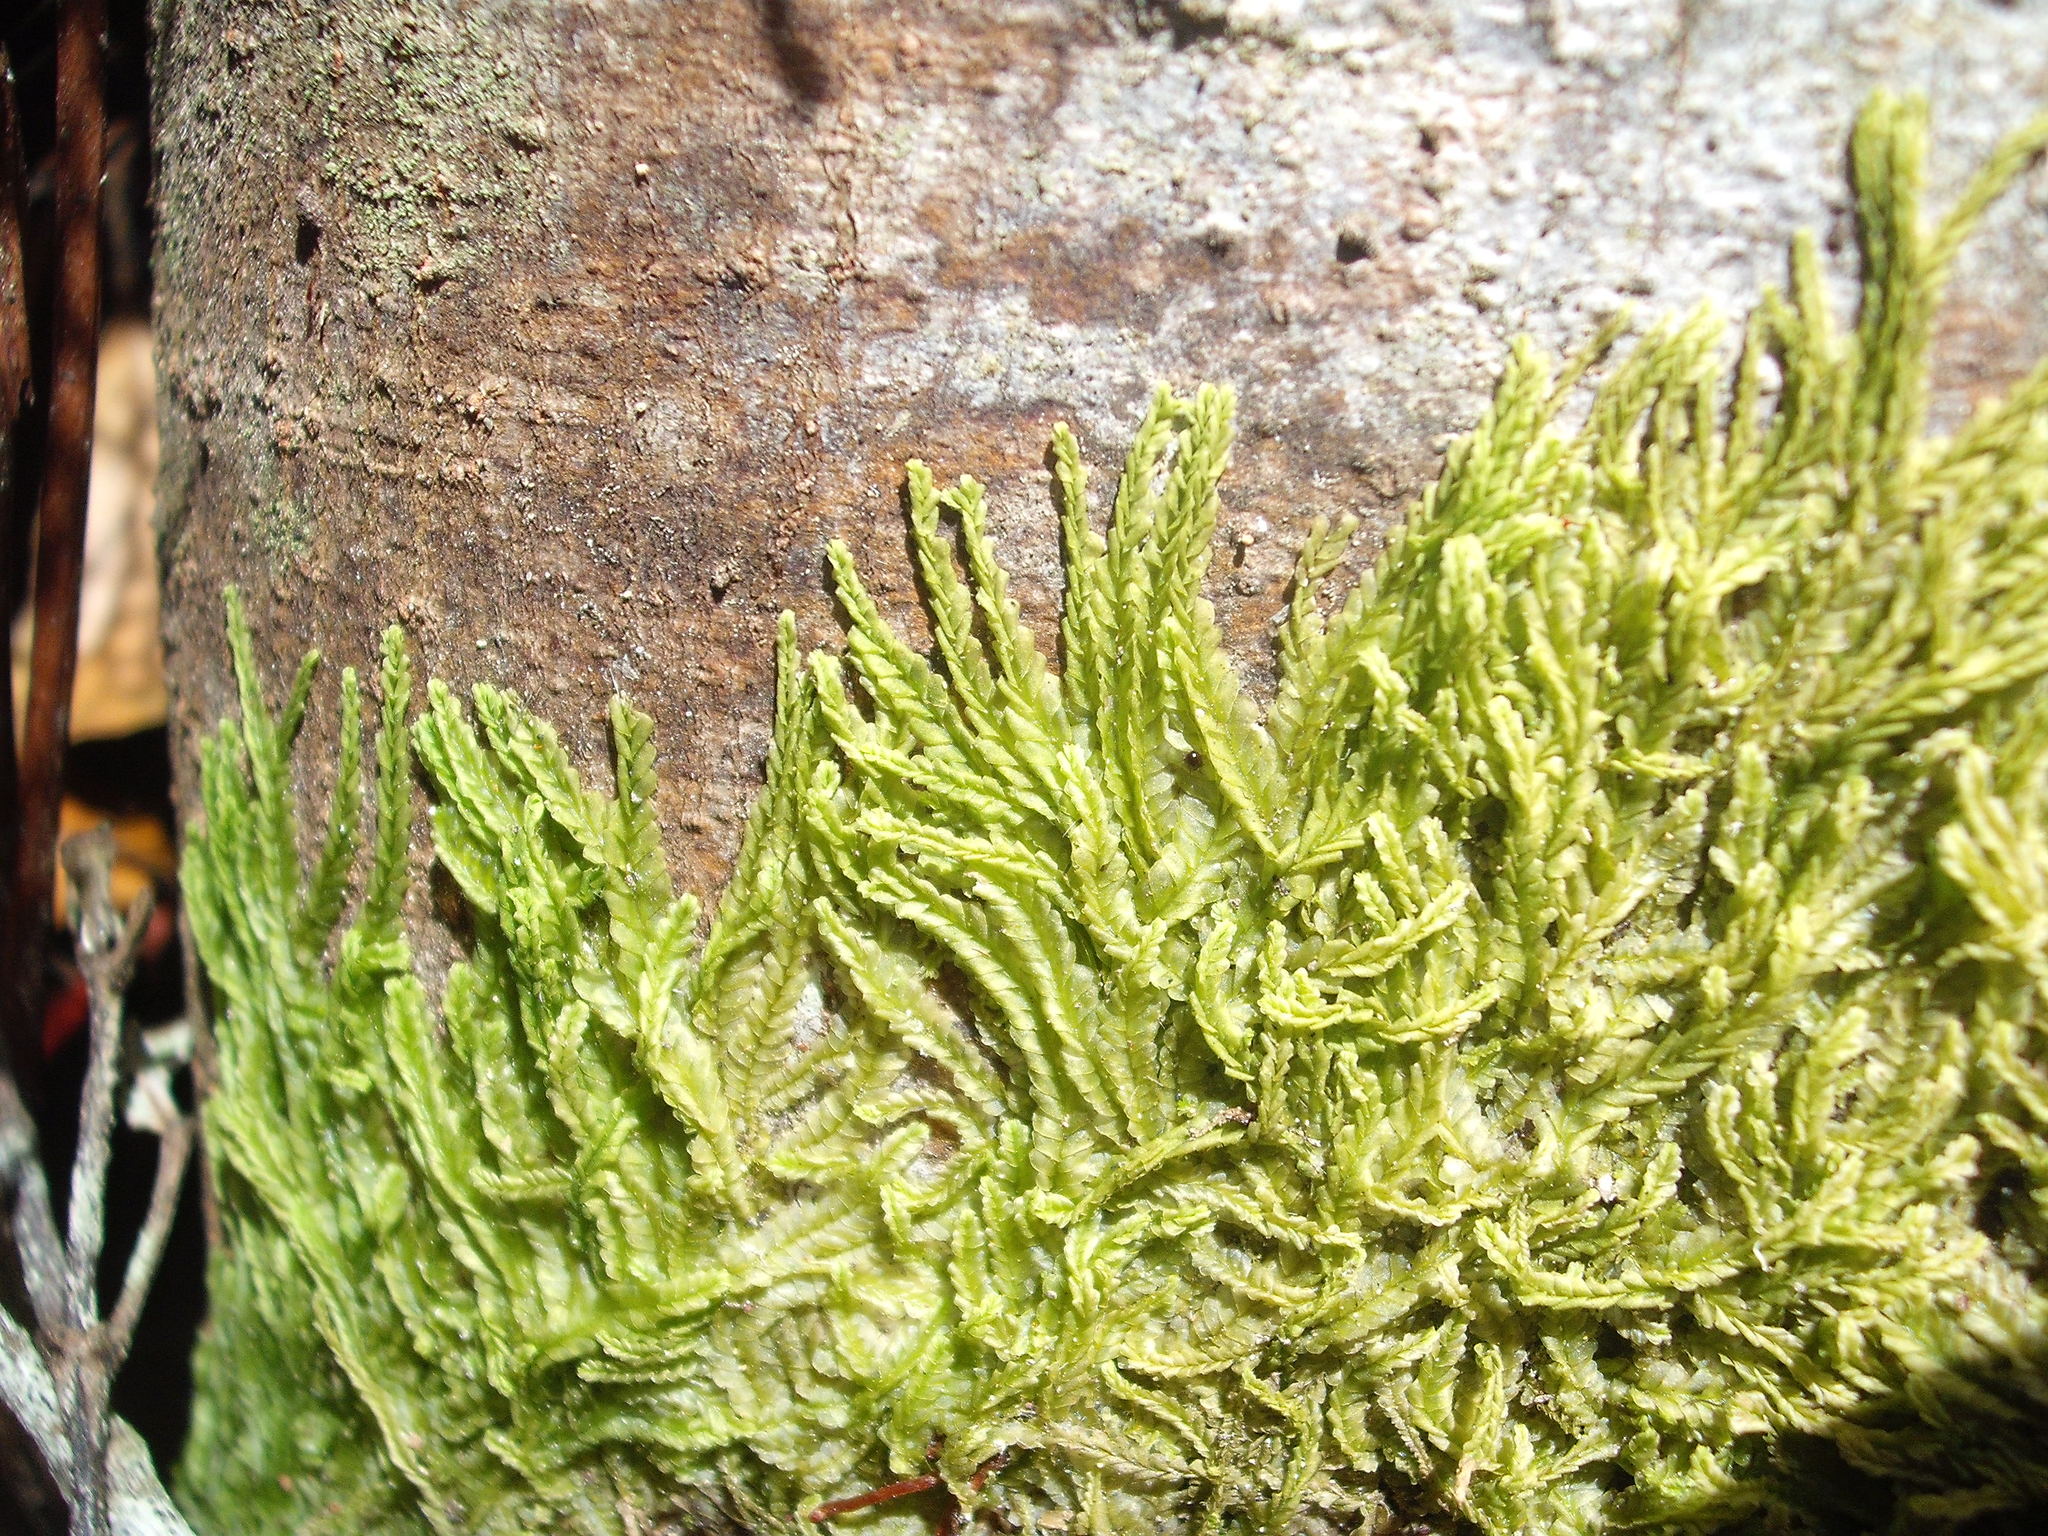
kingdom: Plantae
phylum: Marchantiophyta
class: Jungermanniopsida
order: Jungermanniales
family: Lophocoleaceae
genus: Lophocolea
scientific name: Lophocolea semiteres
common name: Southern crestwort
